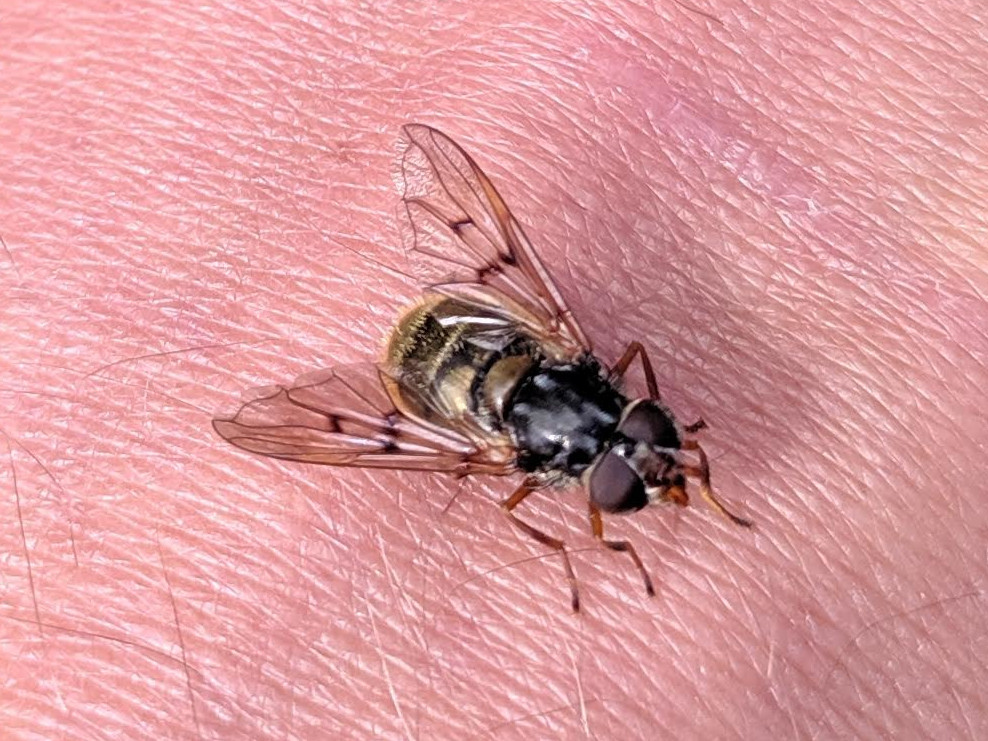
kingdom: Animalia
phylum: Arthropoda
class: Insecta
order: Diptera
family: Syrphidae
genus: Ferdinandea
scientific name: Ferdinandea cuprea
